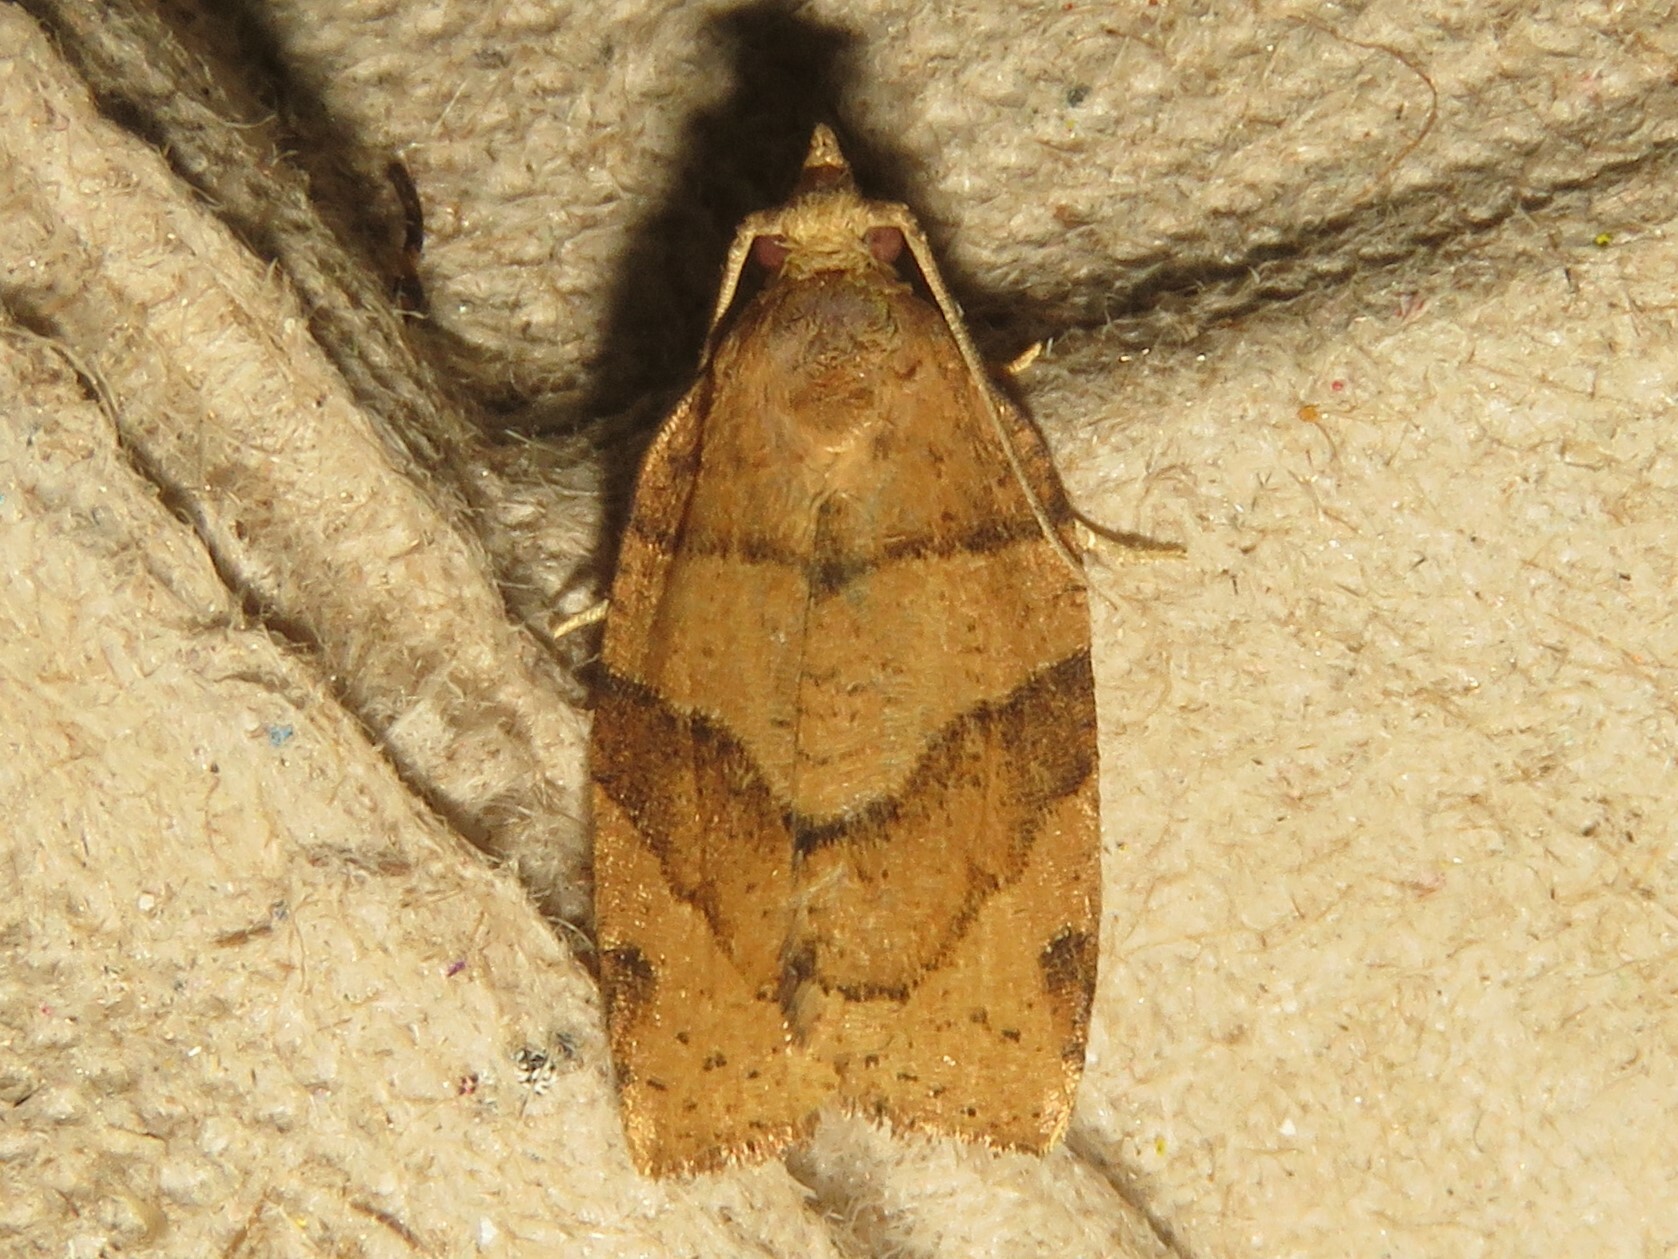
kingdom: Animalia
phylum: Arthropoda
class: Insecta
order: Lepidoptera
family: Tortricidae
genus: Pandemis
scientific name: Pandemis lamprosana
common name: Woodgrain leafroller moth
